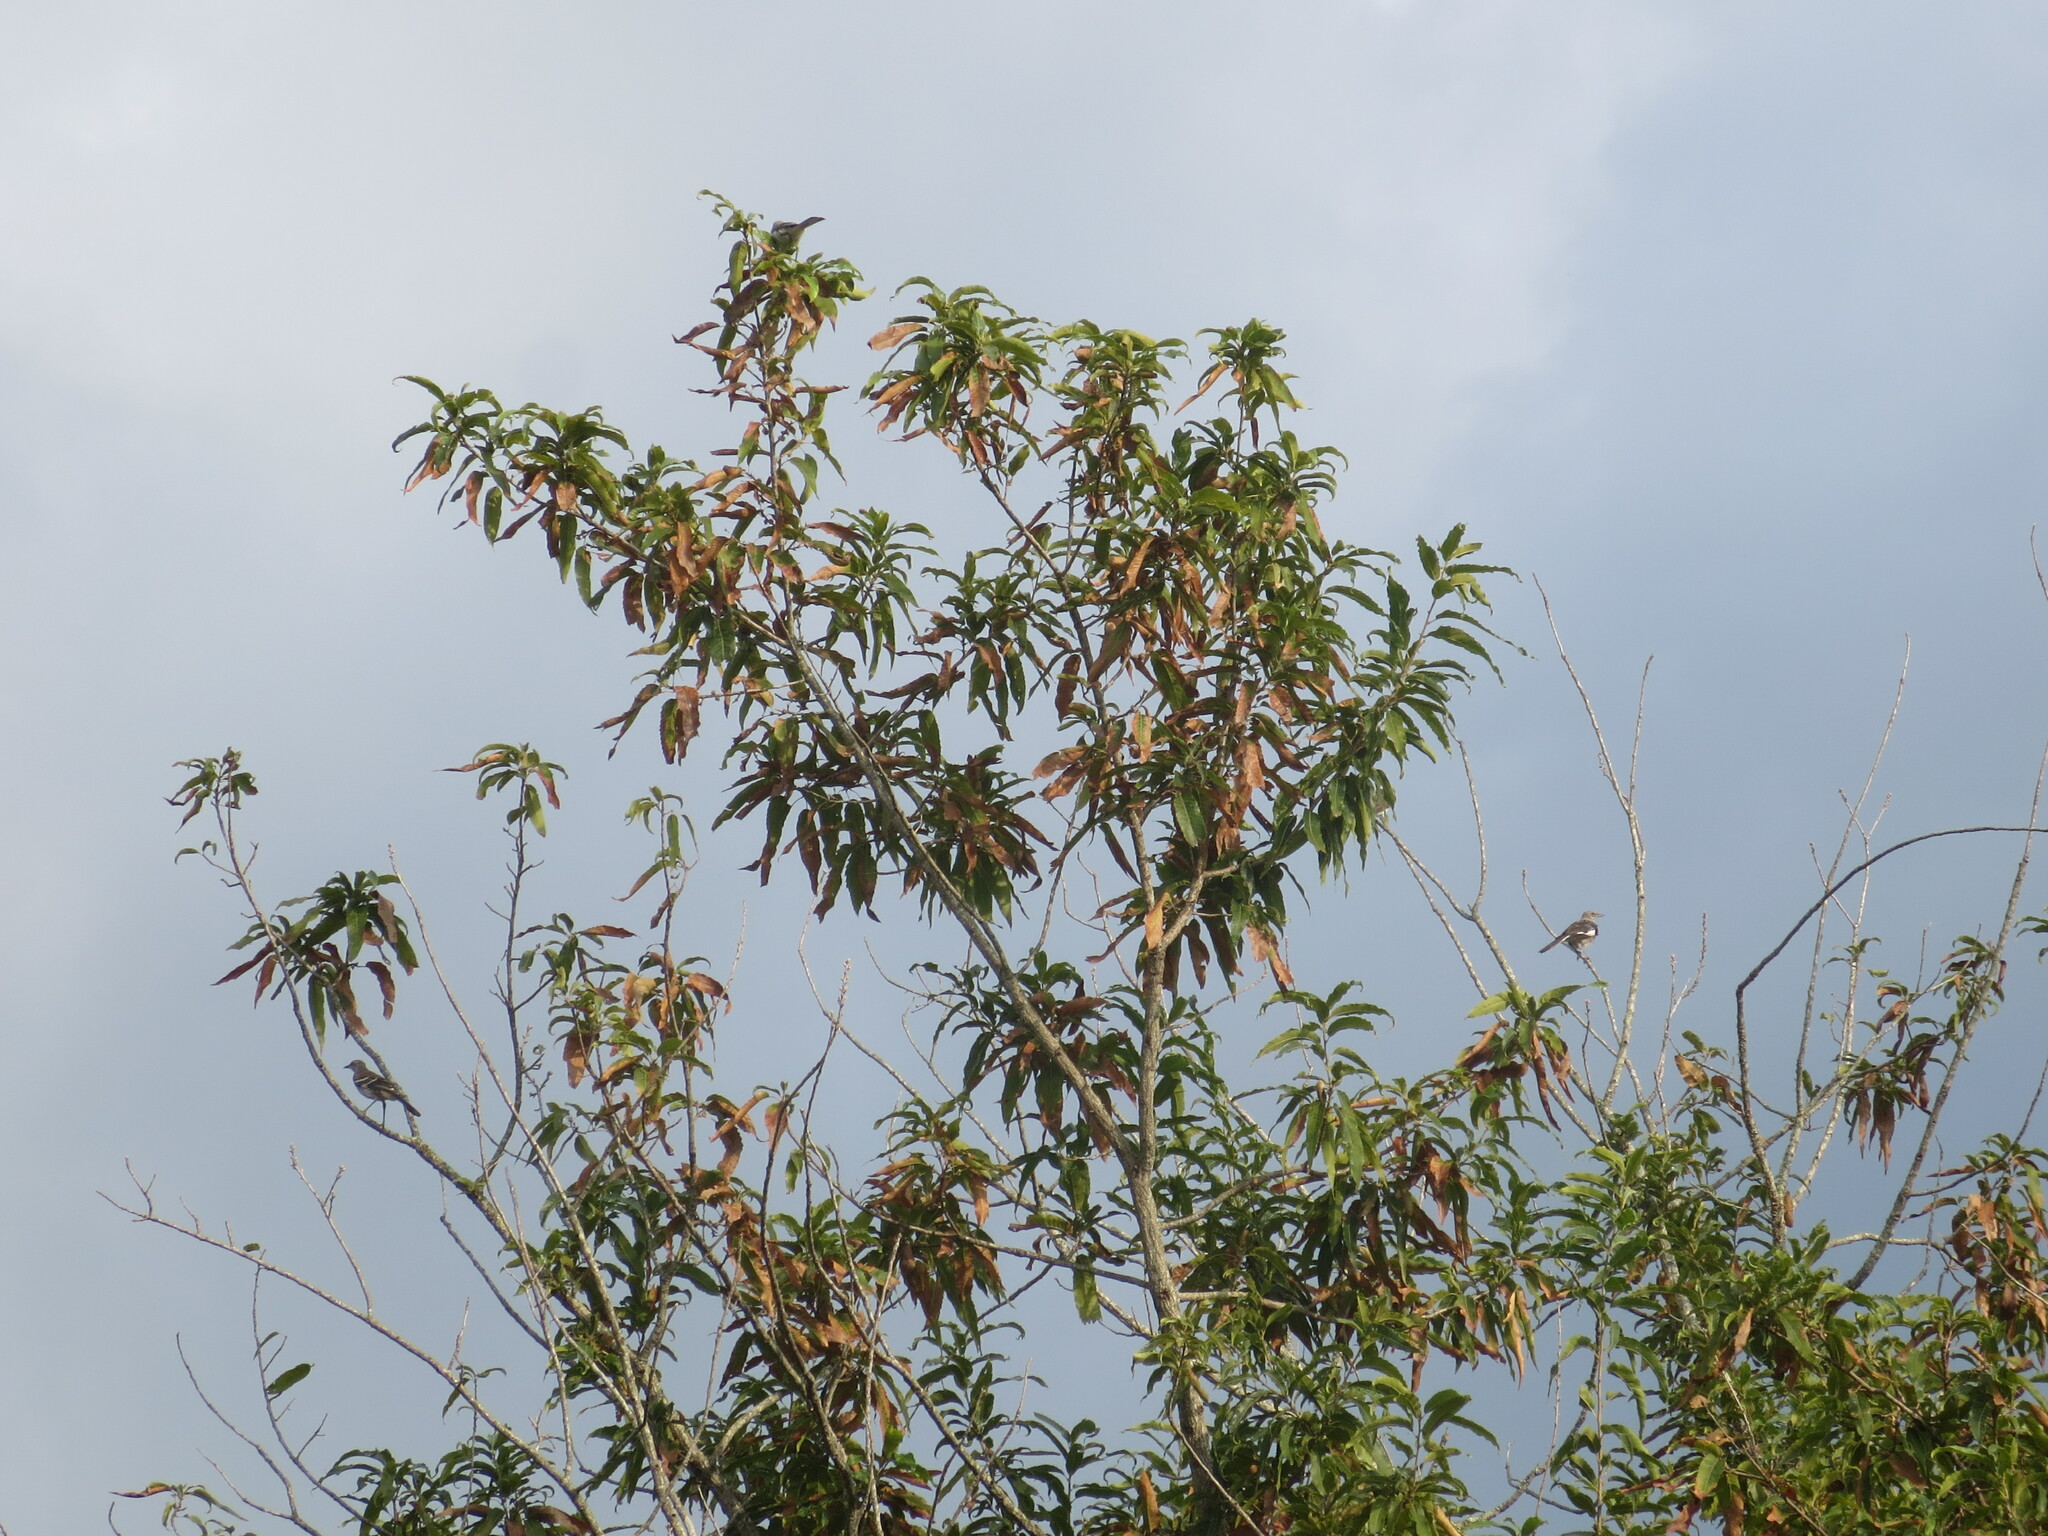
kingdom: Animalia
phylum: Chordata
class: Aves
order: Passeriformes
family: Mimidae
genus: Mimus
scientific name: Mimus polyglottos
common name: Northern mockingbird
